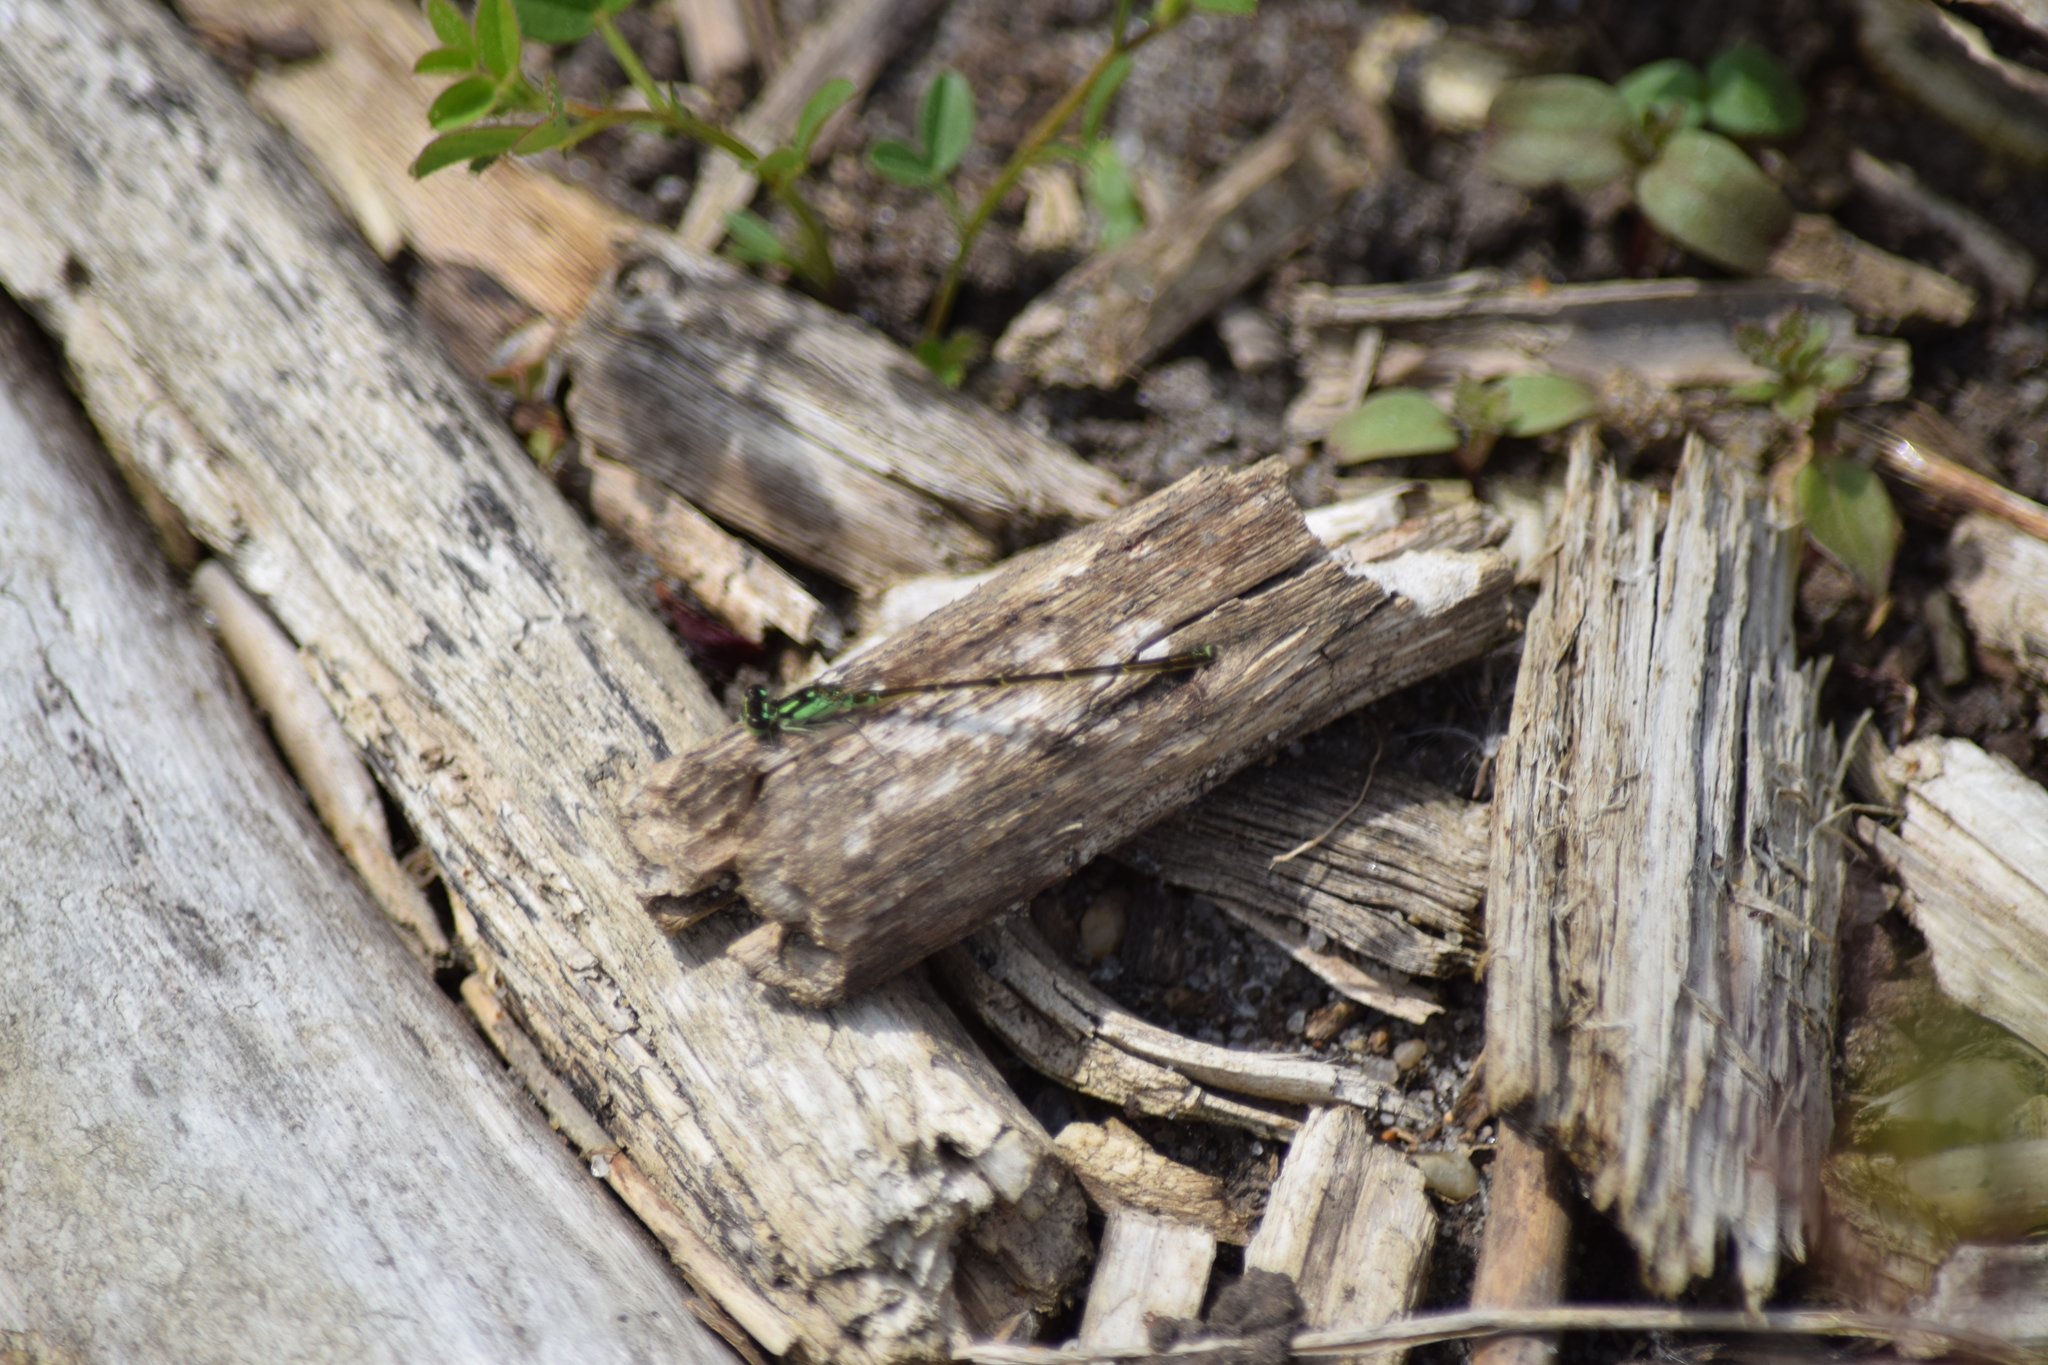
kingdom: Animalia
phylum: Arthropoda
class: Insecta
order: Odonata
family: Coenagrionidae
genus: Ischnura
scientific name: Ischnura posita
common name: Fragile forktail
